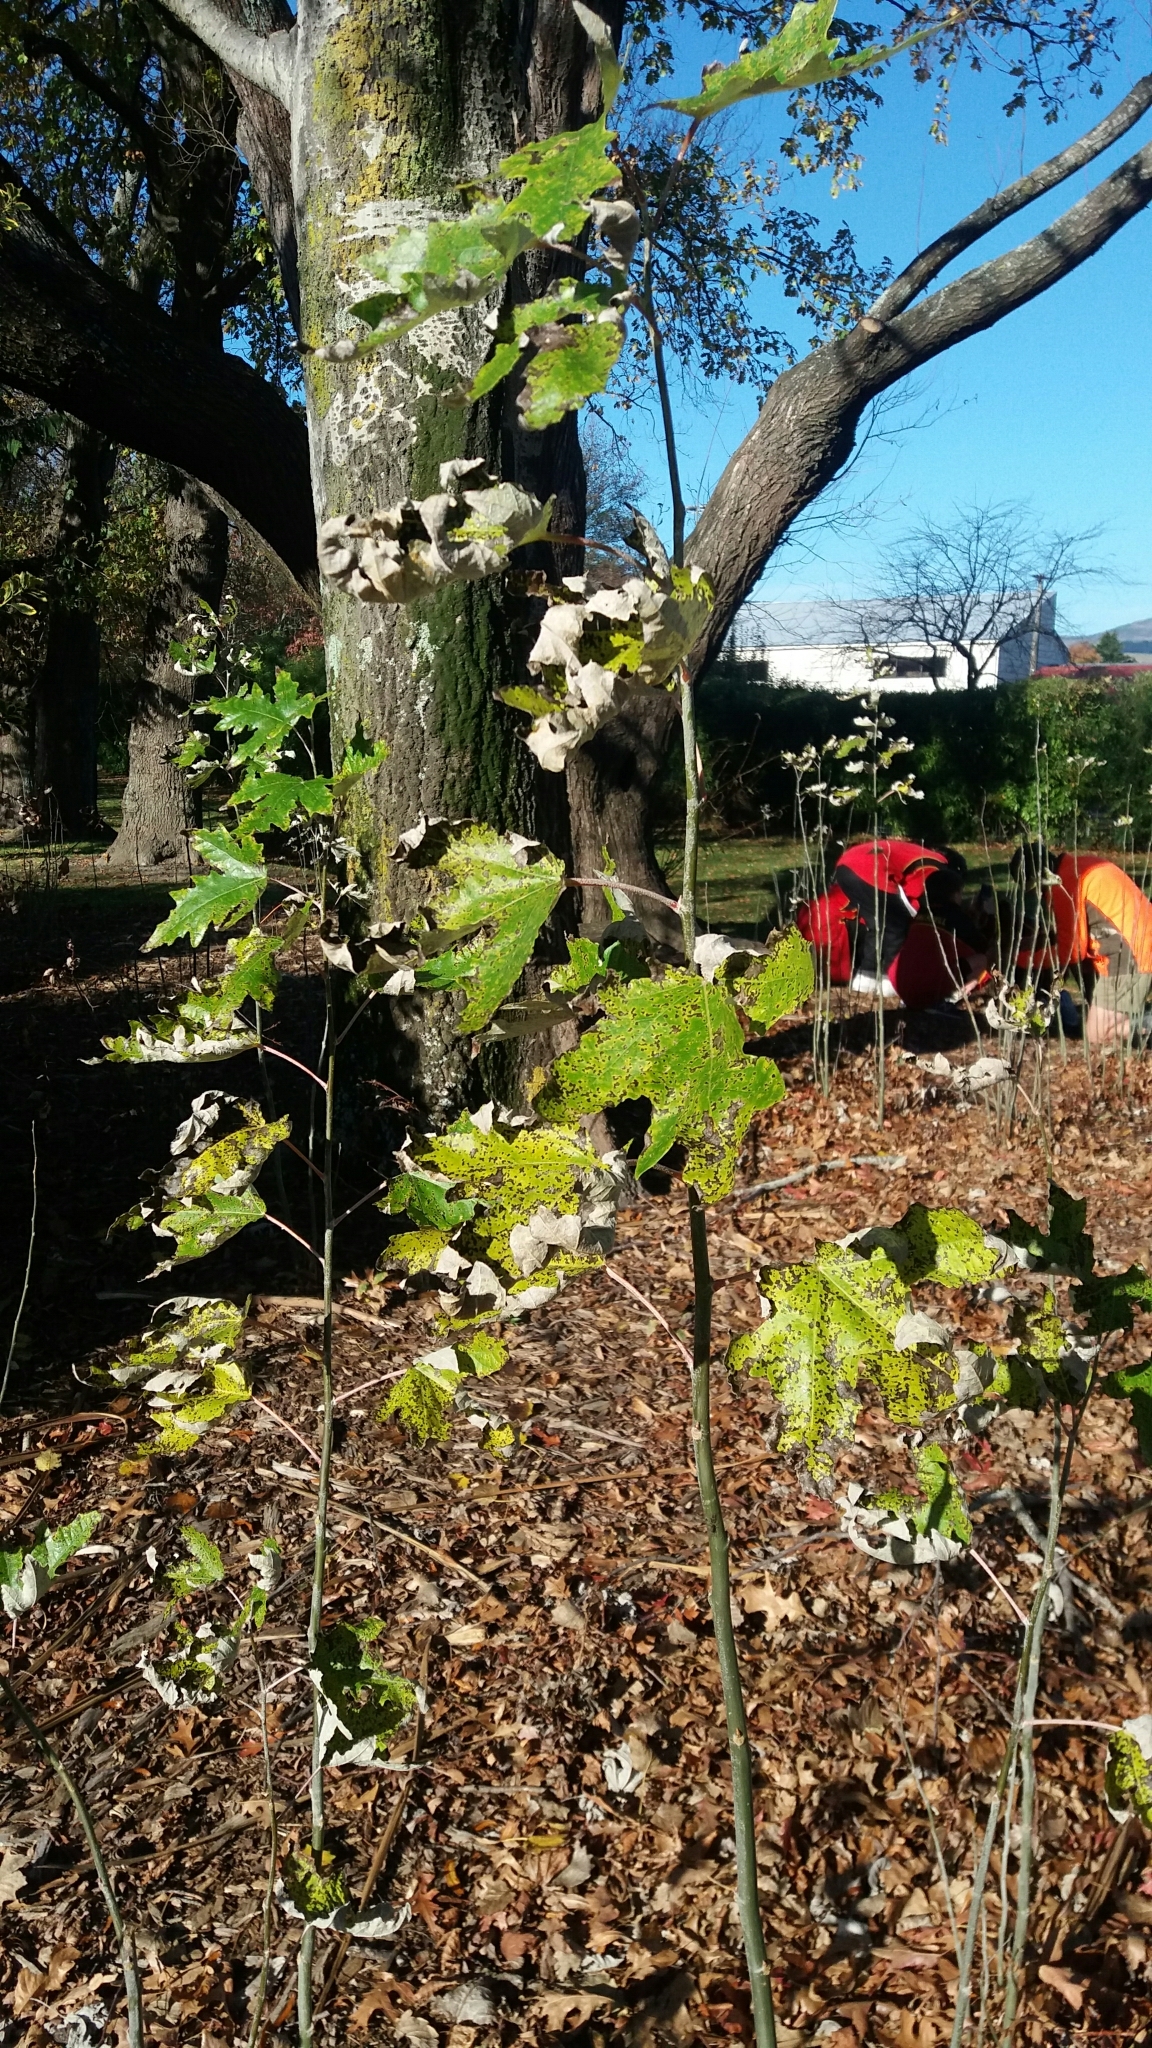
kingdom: Plantae
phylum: Tracheophyta
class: Magnoliopsida
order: Malpighiales
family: Salicaceae
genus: Populus
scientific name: Populus alba
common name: White poplar
